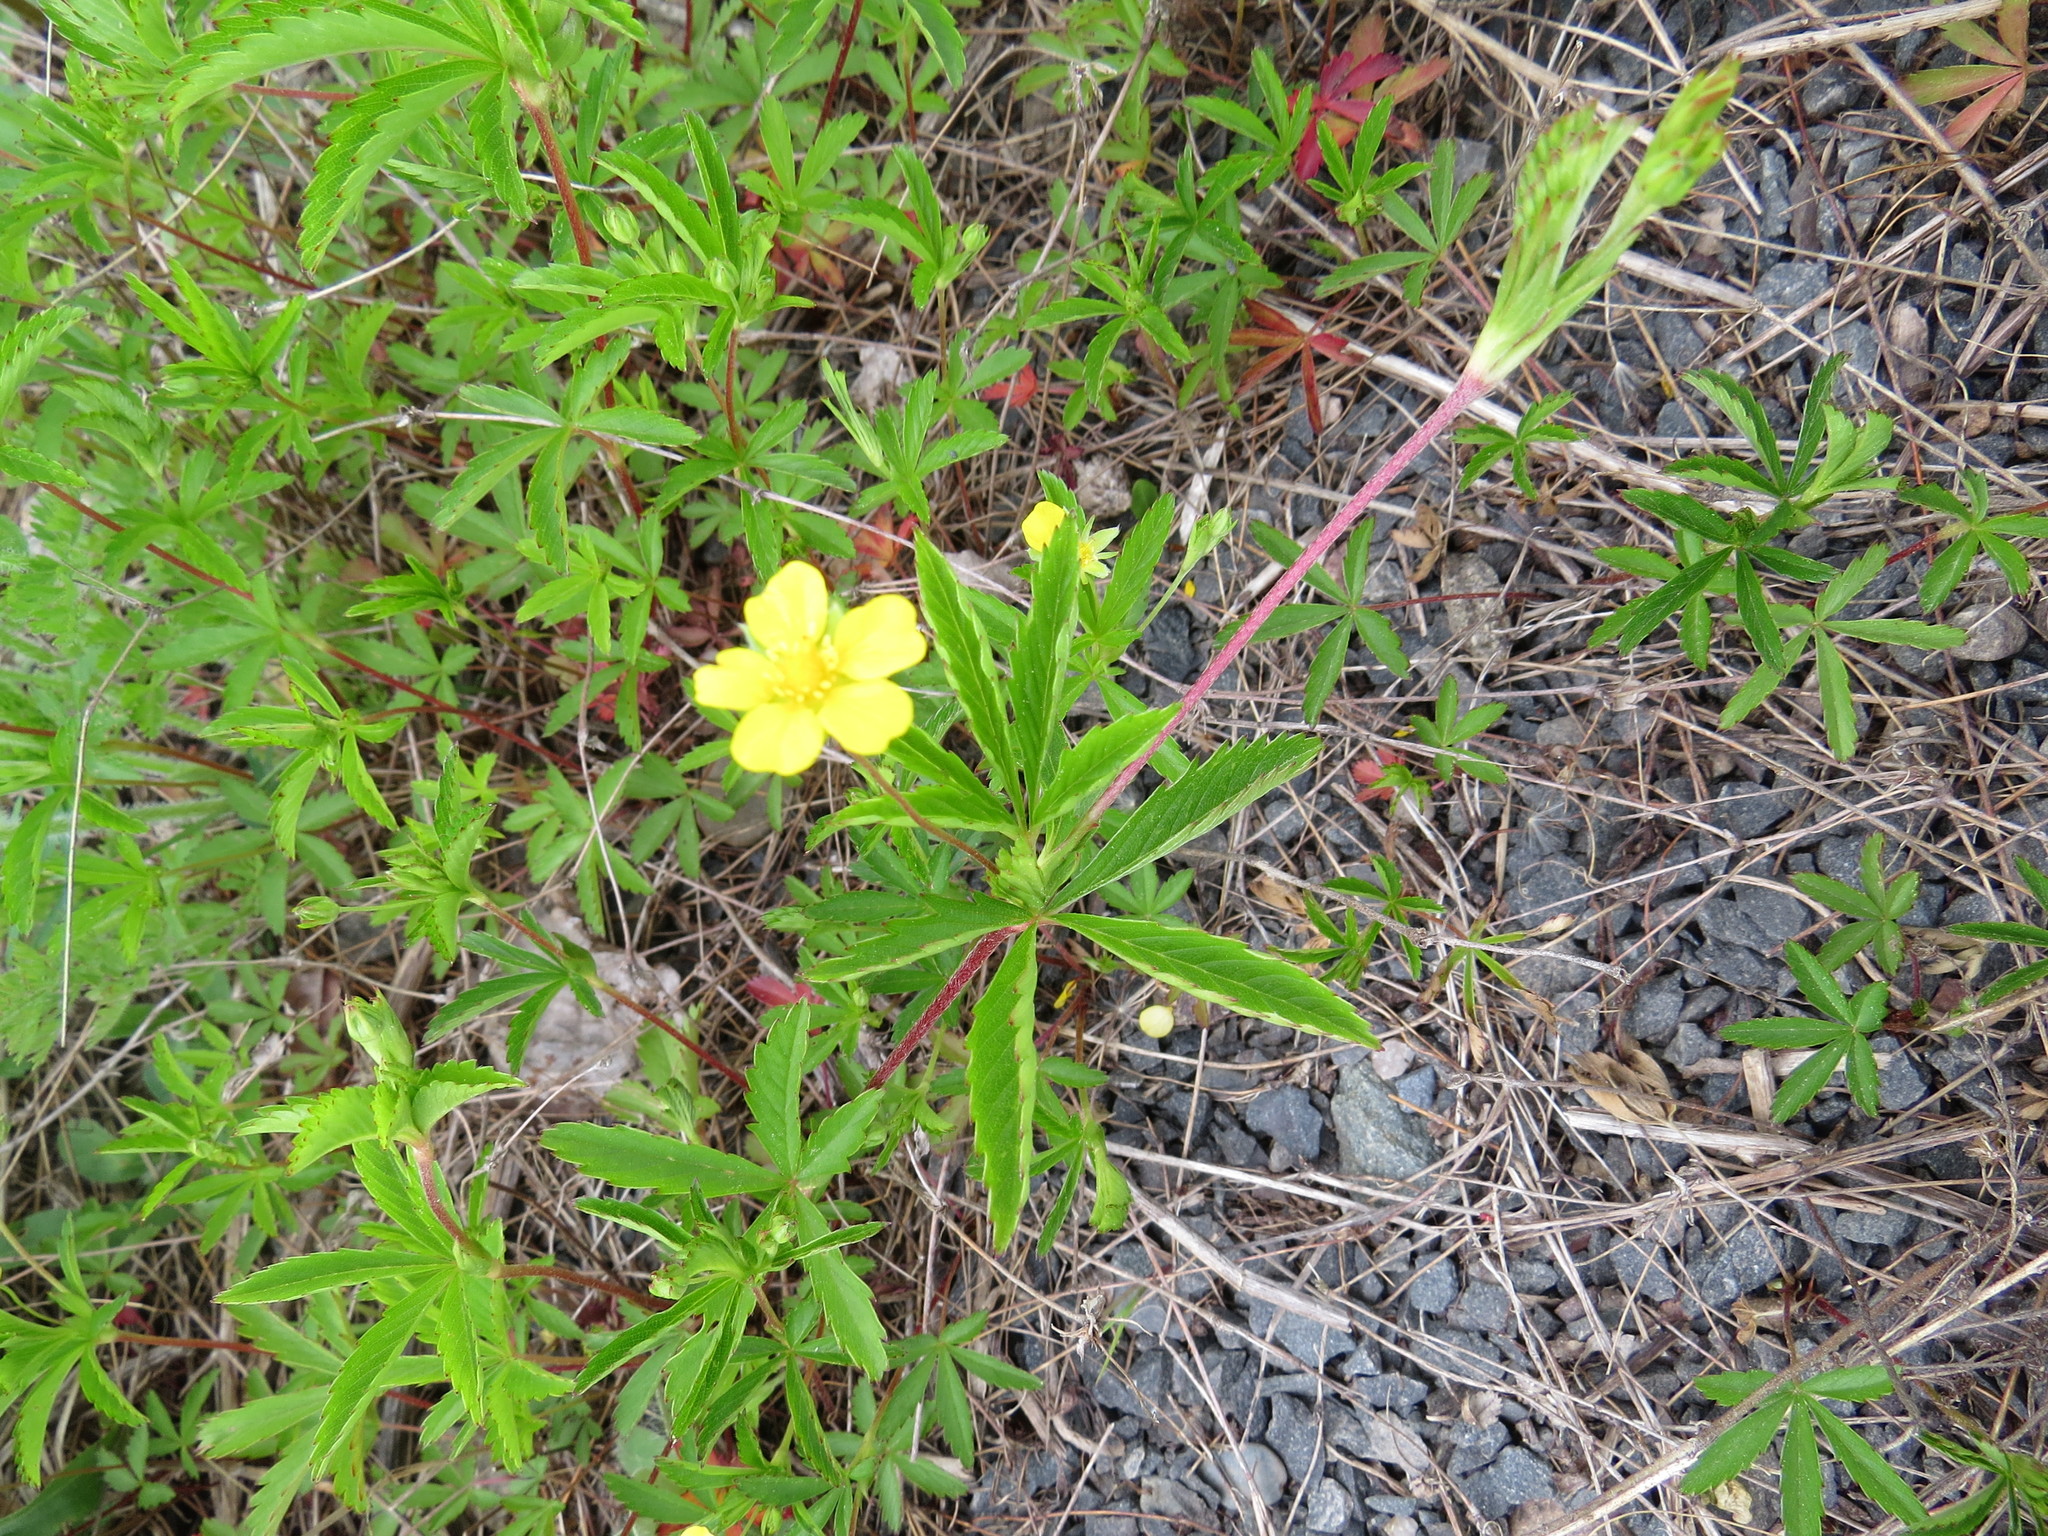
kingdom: Plantae
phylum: Tracheophyta
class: Magnoliopsida
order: Rosales
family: Rosaceae
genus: Potentilla
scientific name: Potentilla simplex
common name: Old field cinquefoil
